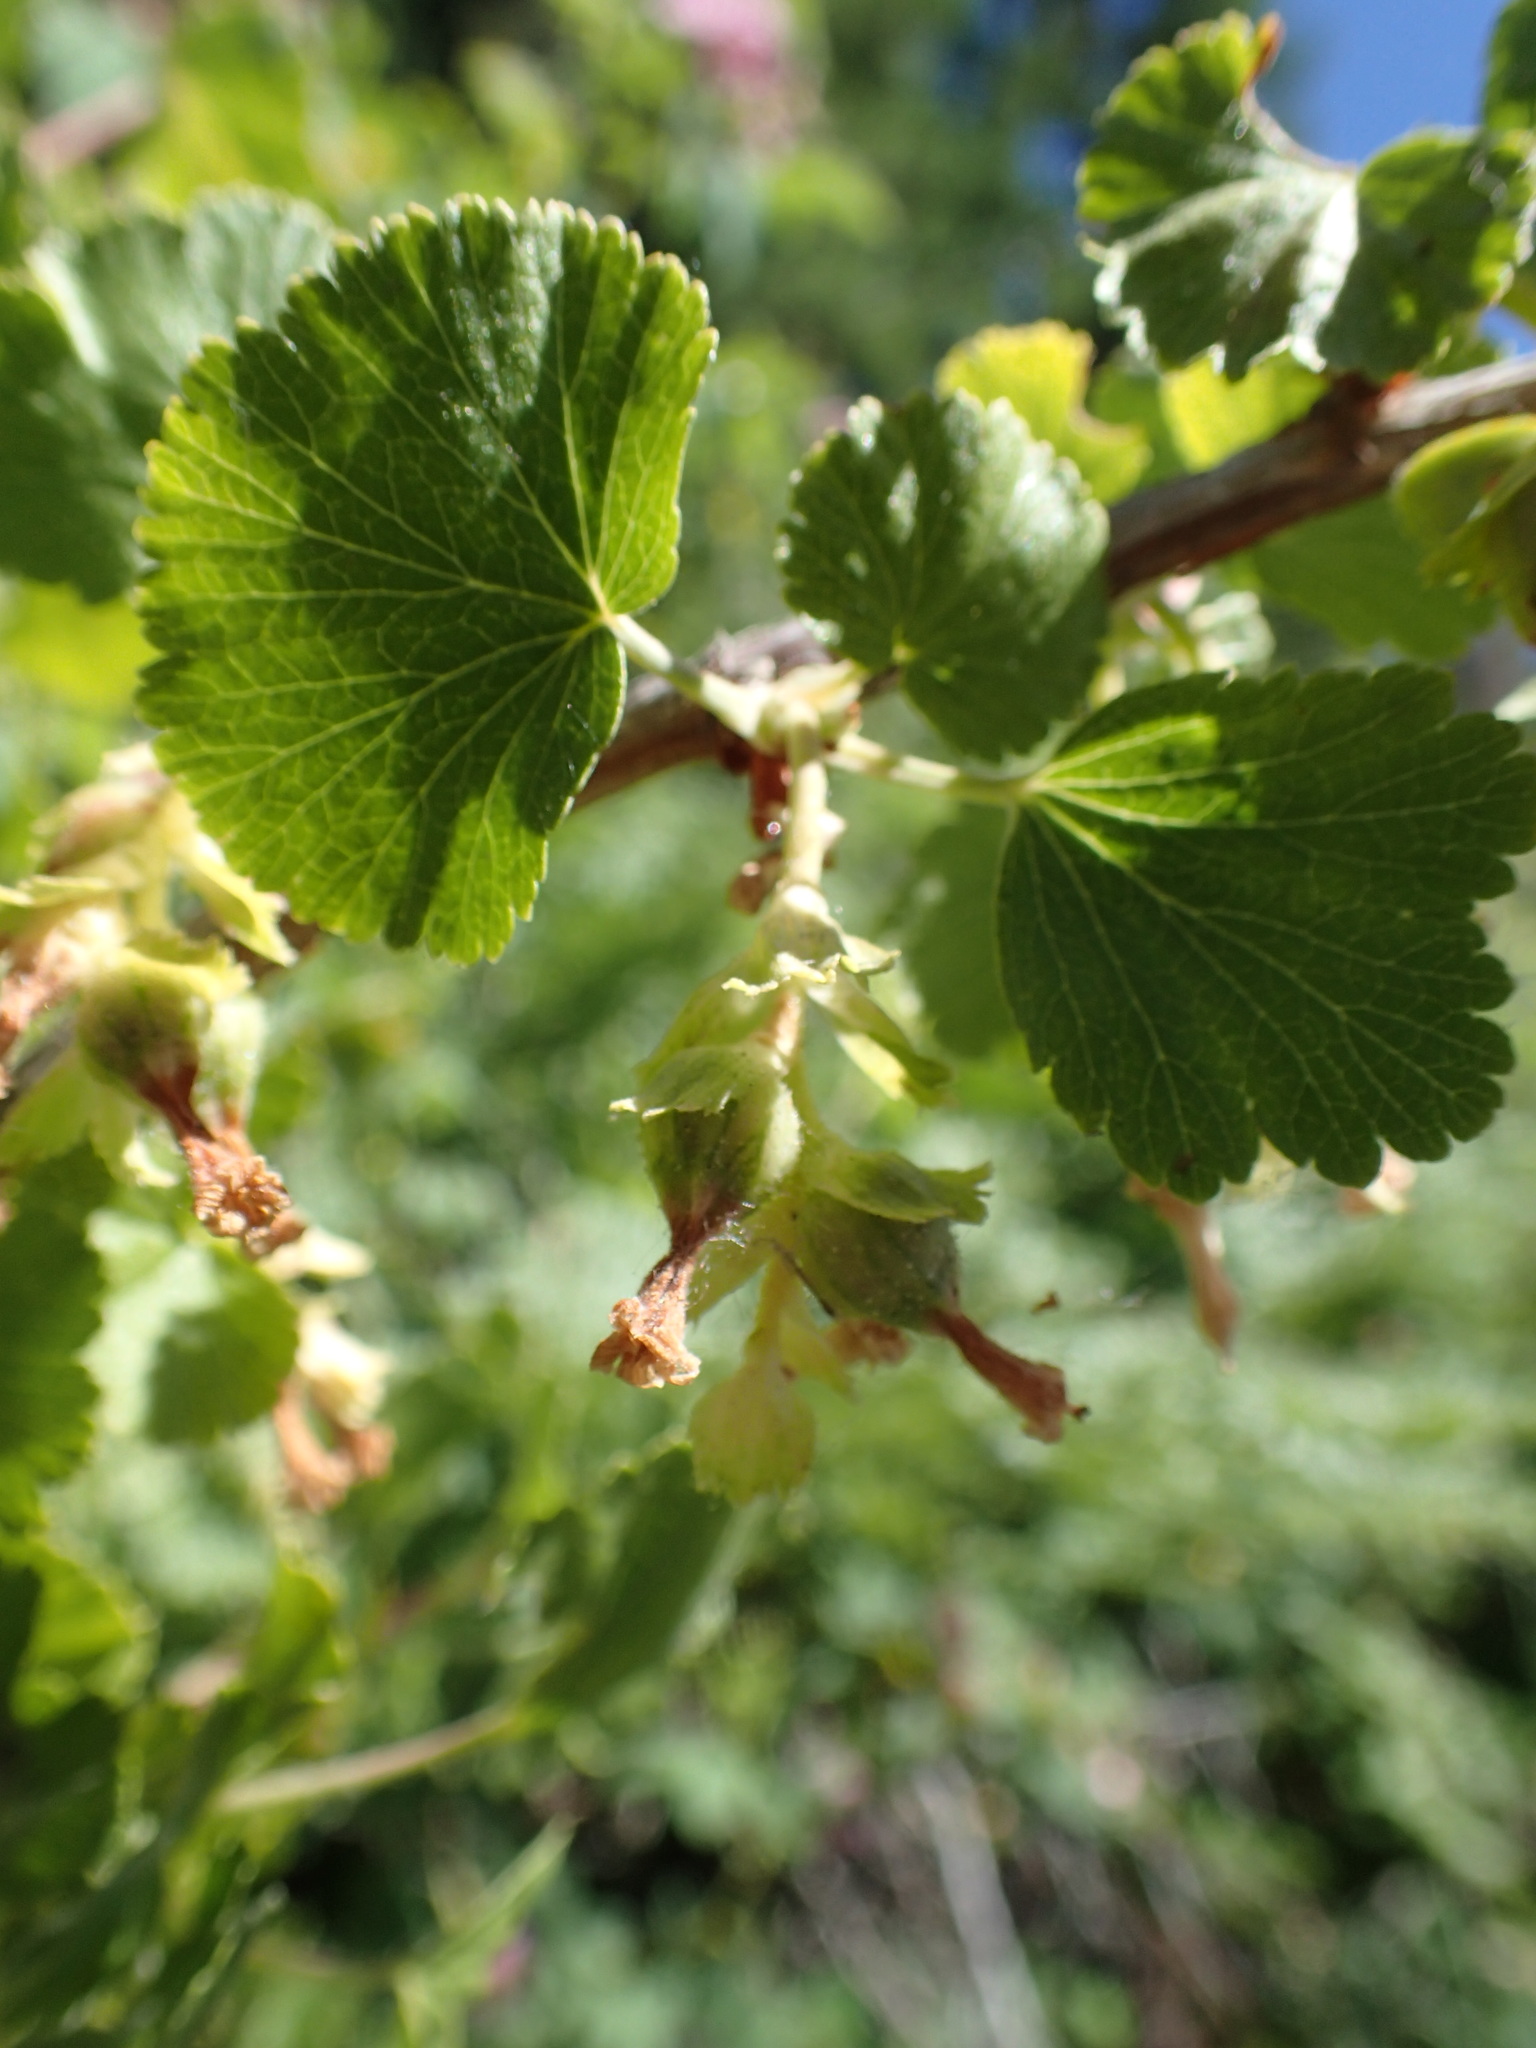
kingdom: Plantae
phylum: Tracheophyta
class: Magnoliopsida
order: Saxifragales
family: Grossulariaceae
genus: Ribes
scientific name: Ribes cereum
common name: Wax currant
